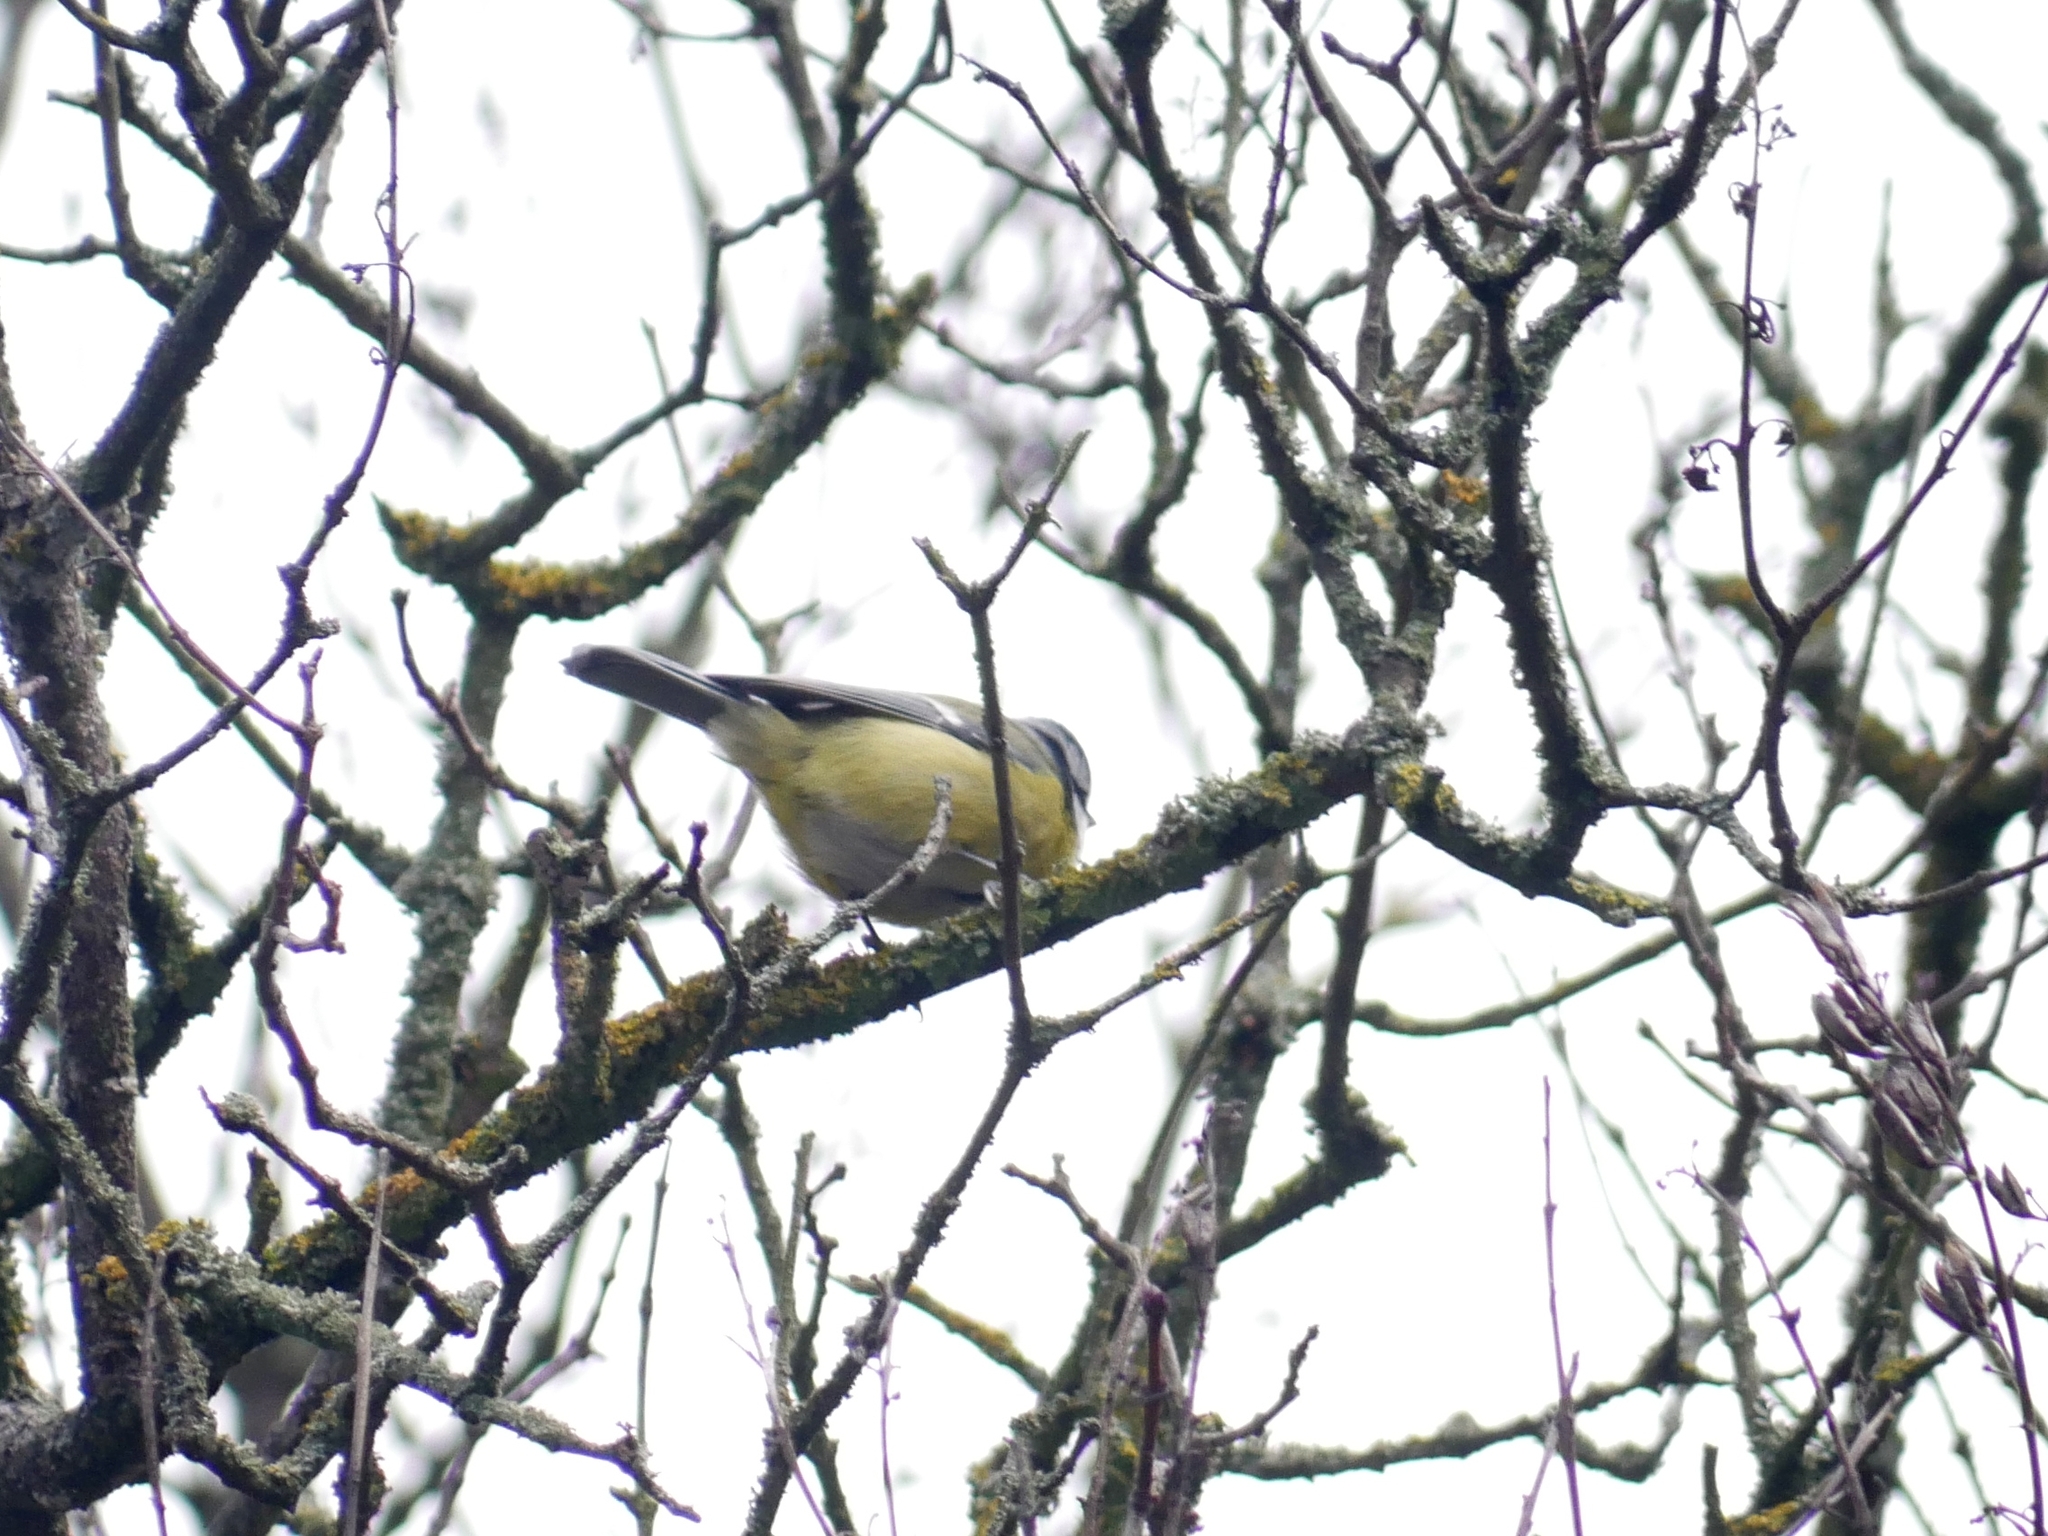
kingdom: Animalia
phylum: Chordata
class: Aves
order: Passeriformes
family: Paridae
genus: Cyanistes
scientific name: Cyanistes caeruleus
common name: Eurasian blue tit
